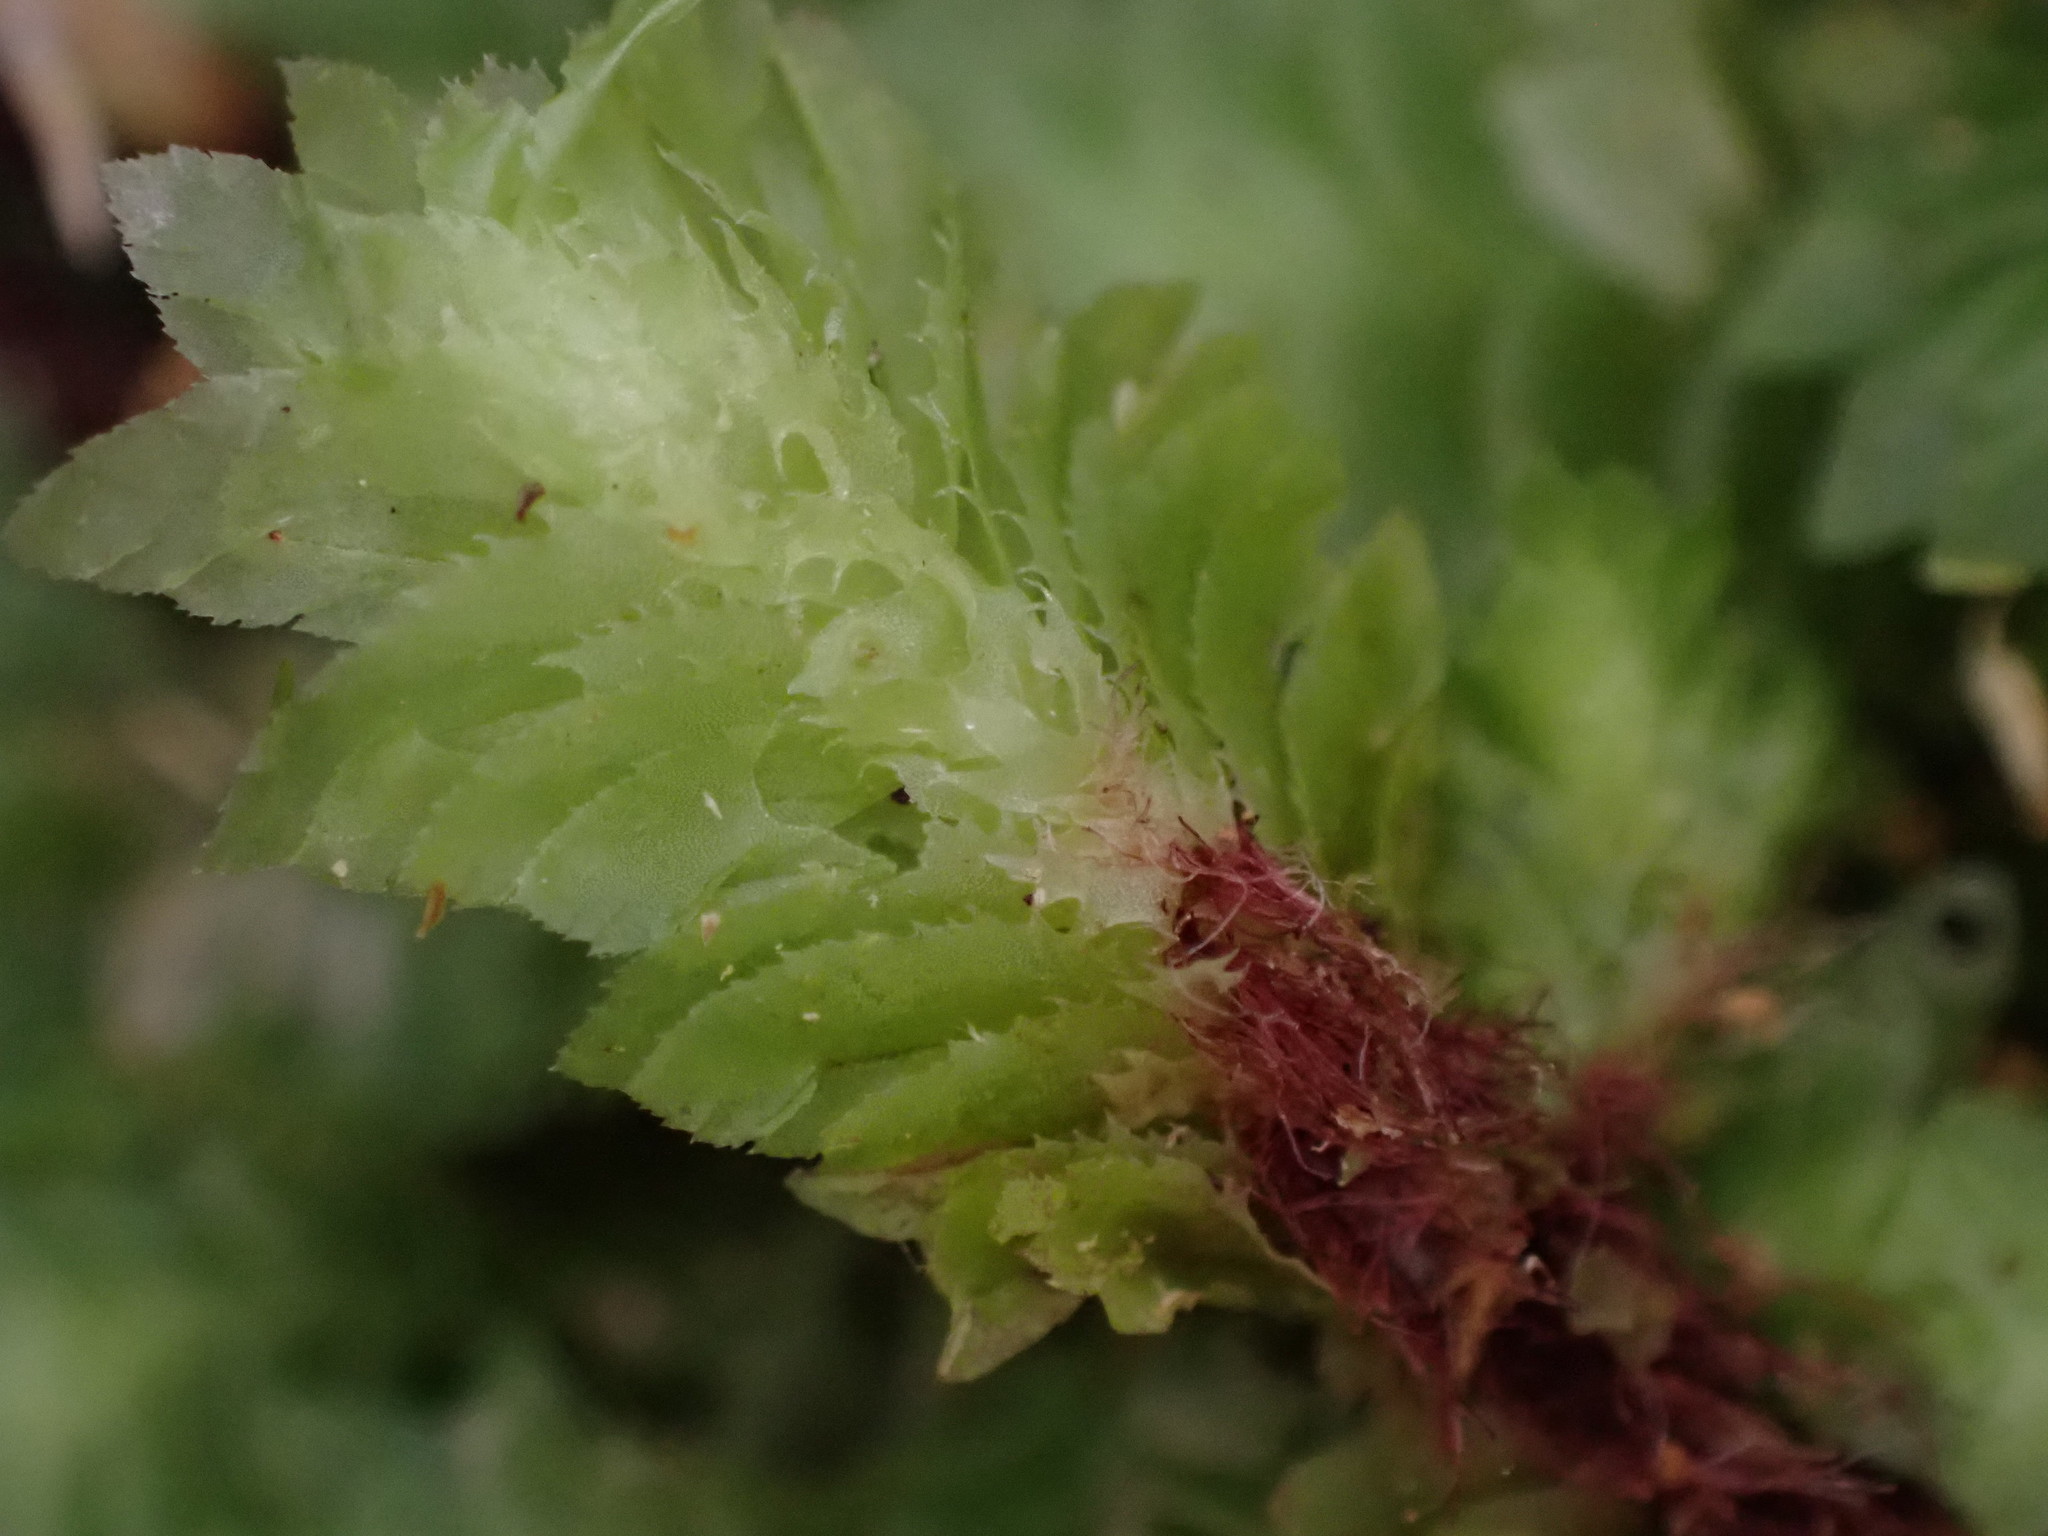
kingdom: Plantae
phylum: Marchantiophyta
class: Jungermanniopsida
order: Jungermanniales
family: Schistochilaceae
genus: Schistochila
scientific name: Schistochila balfouriana
